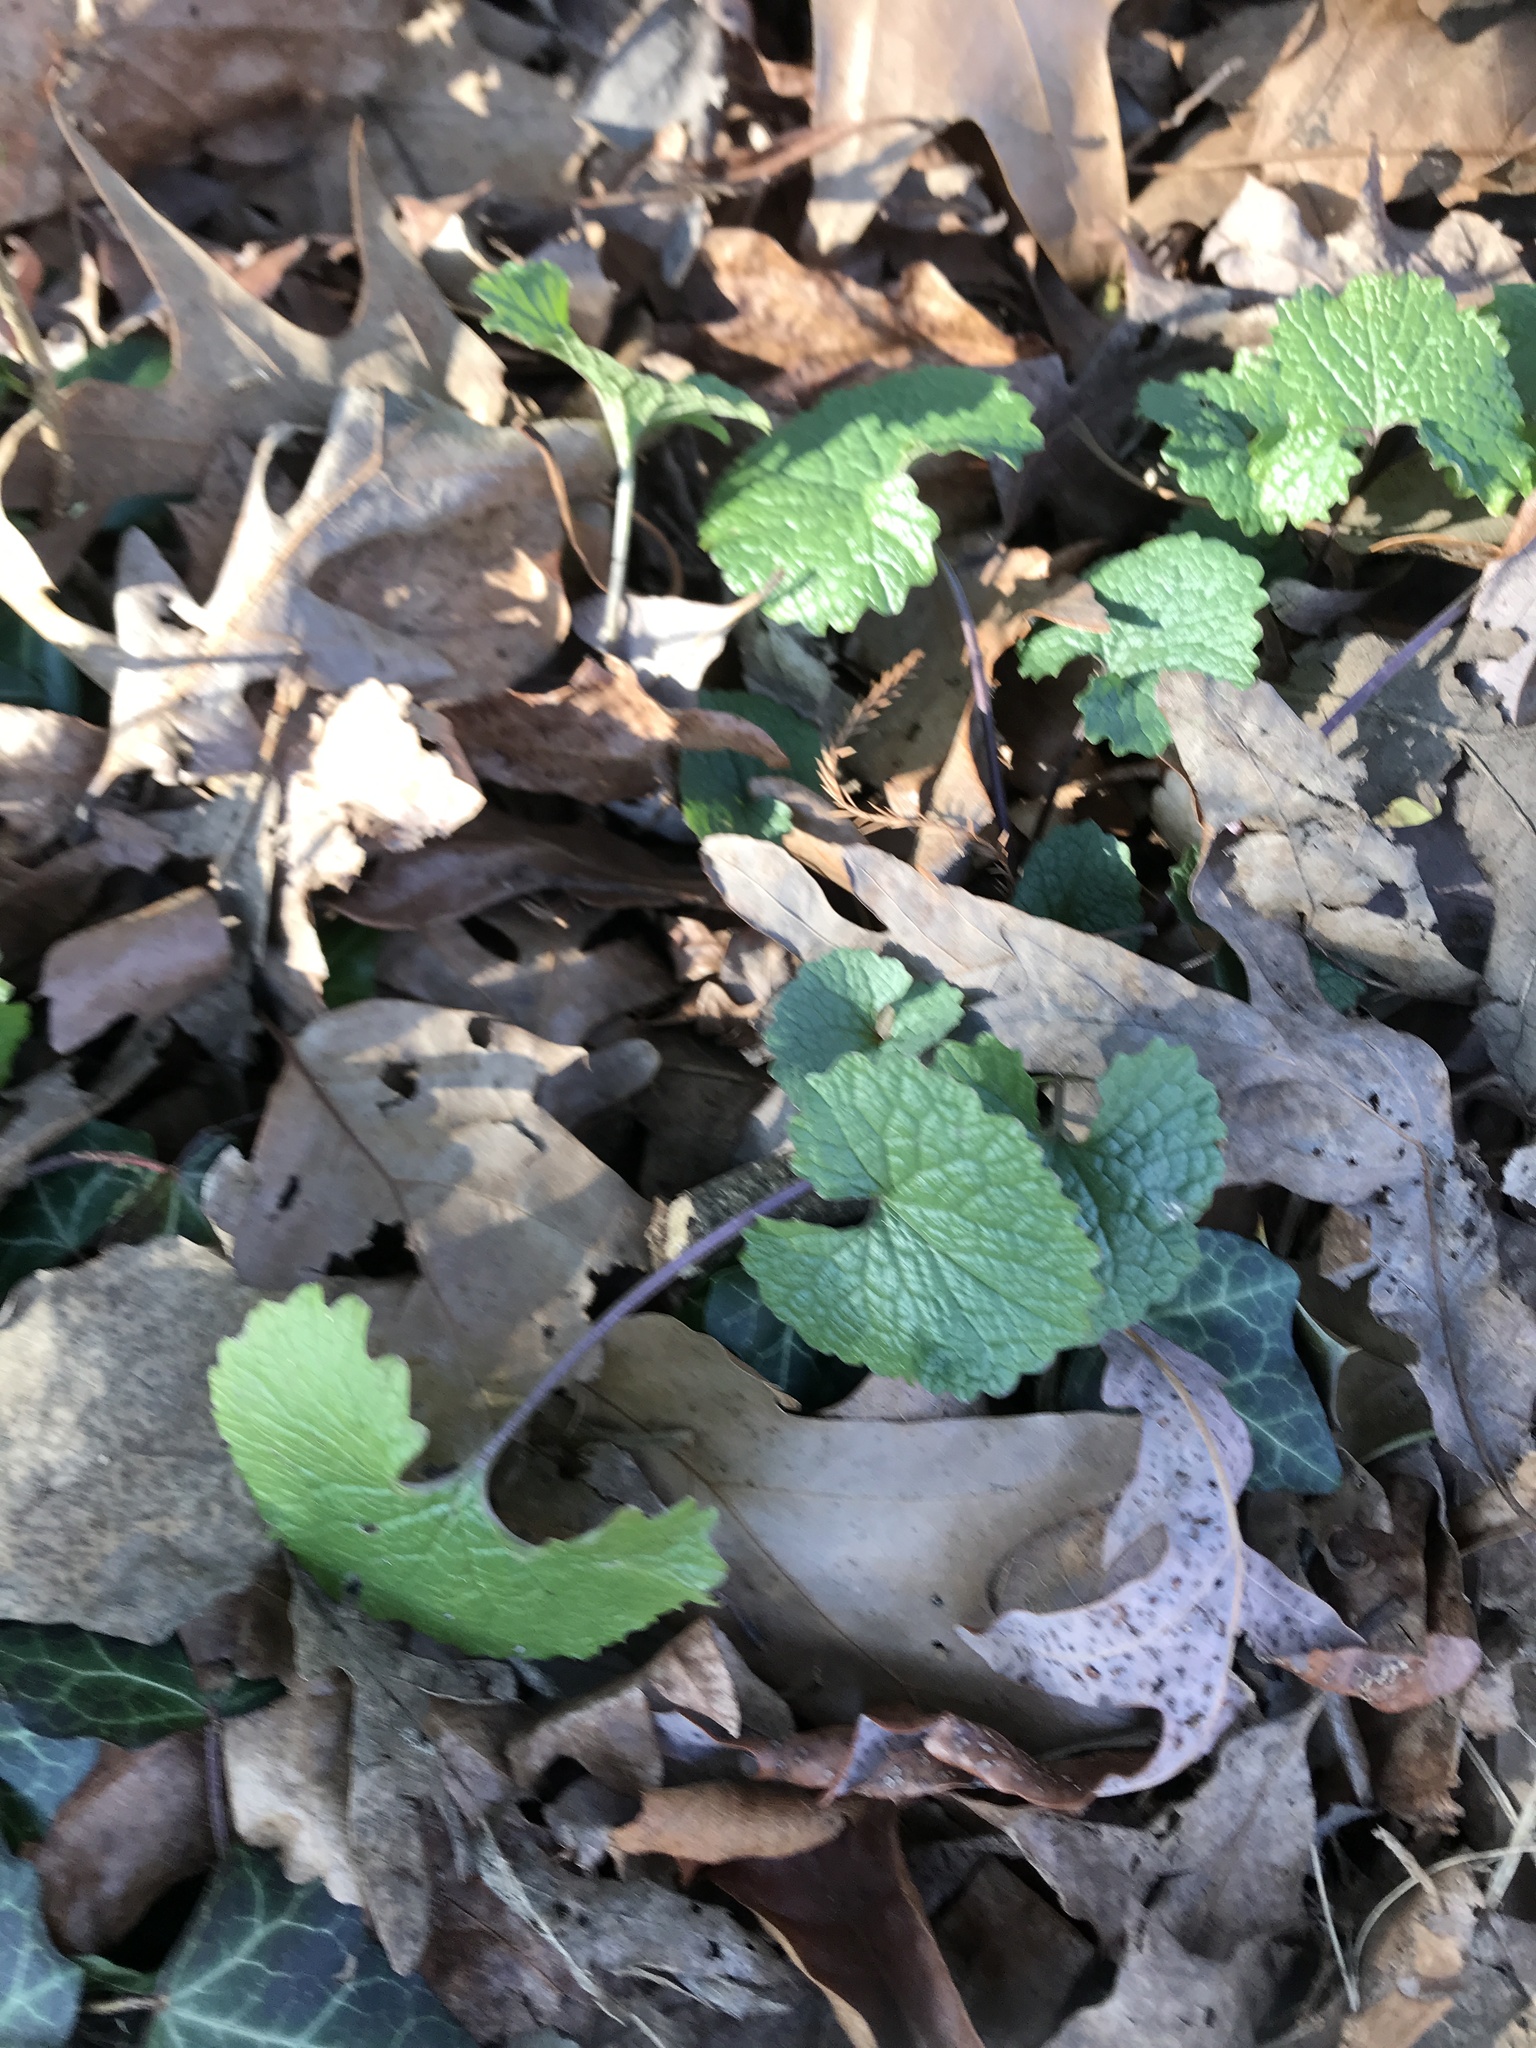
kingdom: Plantae
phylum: Tracheophyta
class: Magnoliopsida
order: Brassicales
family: Brassicaceae
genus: Alliaria
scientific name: Alliaria petiolata
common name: Garlic mustard
